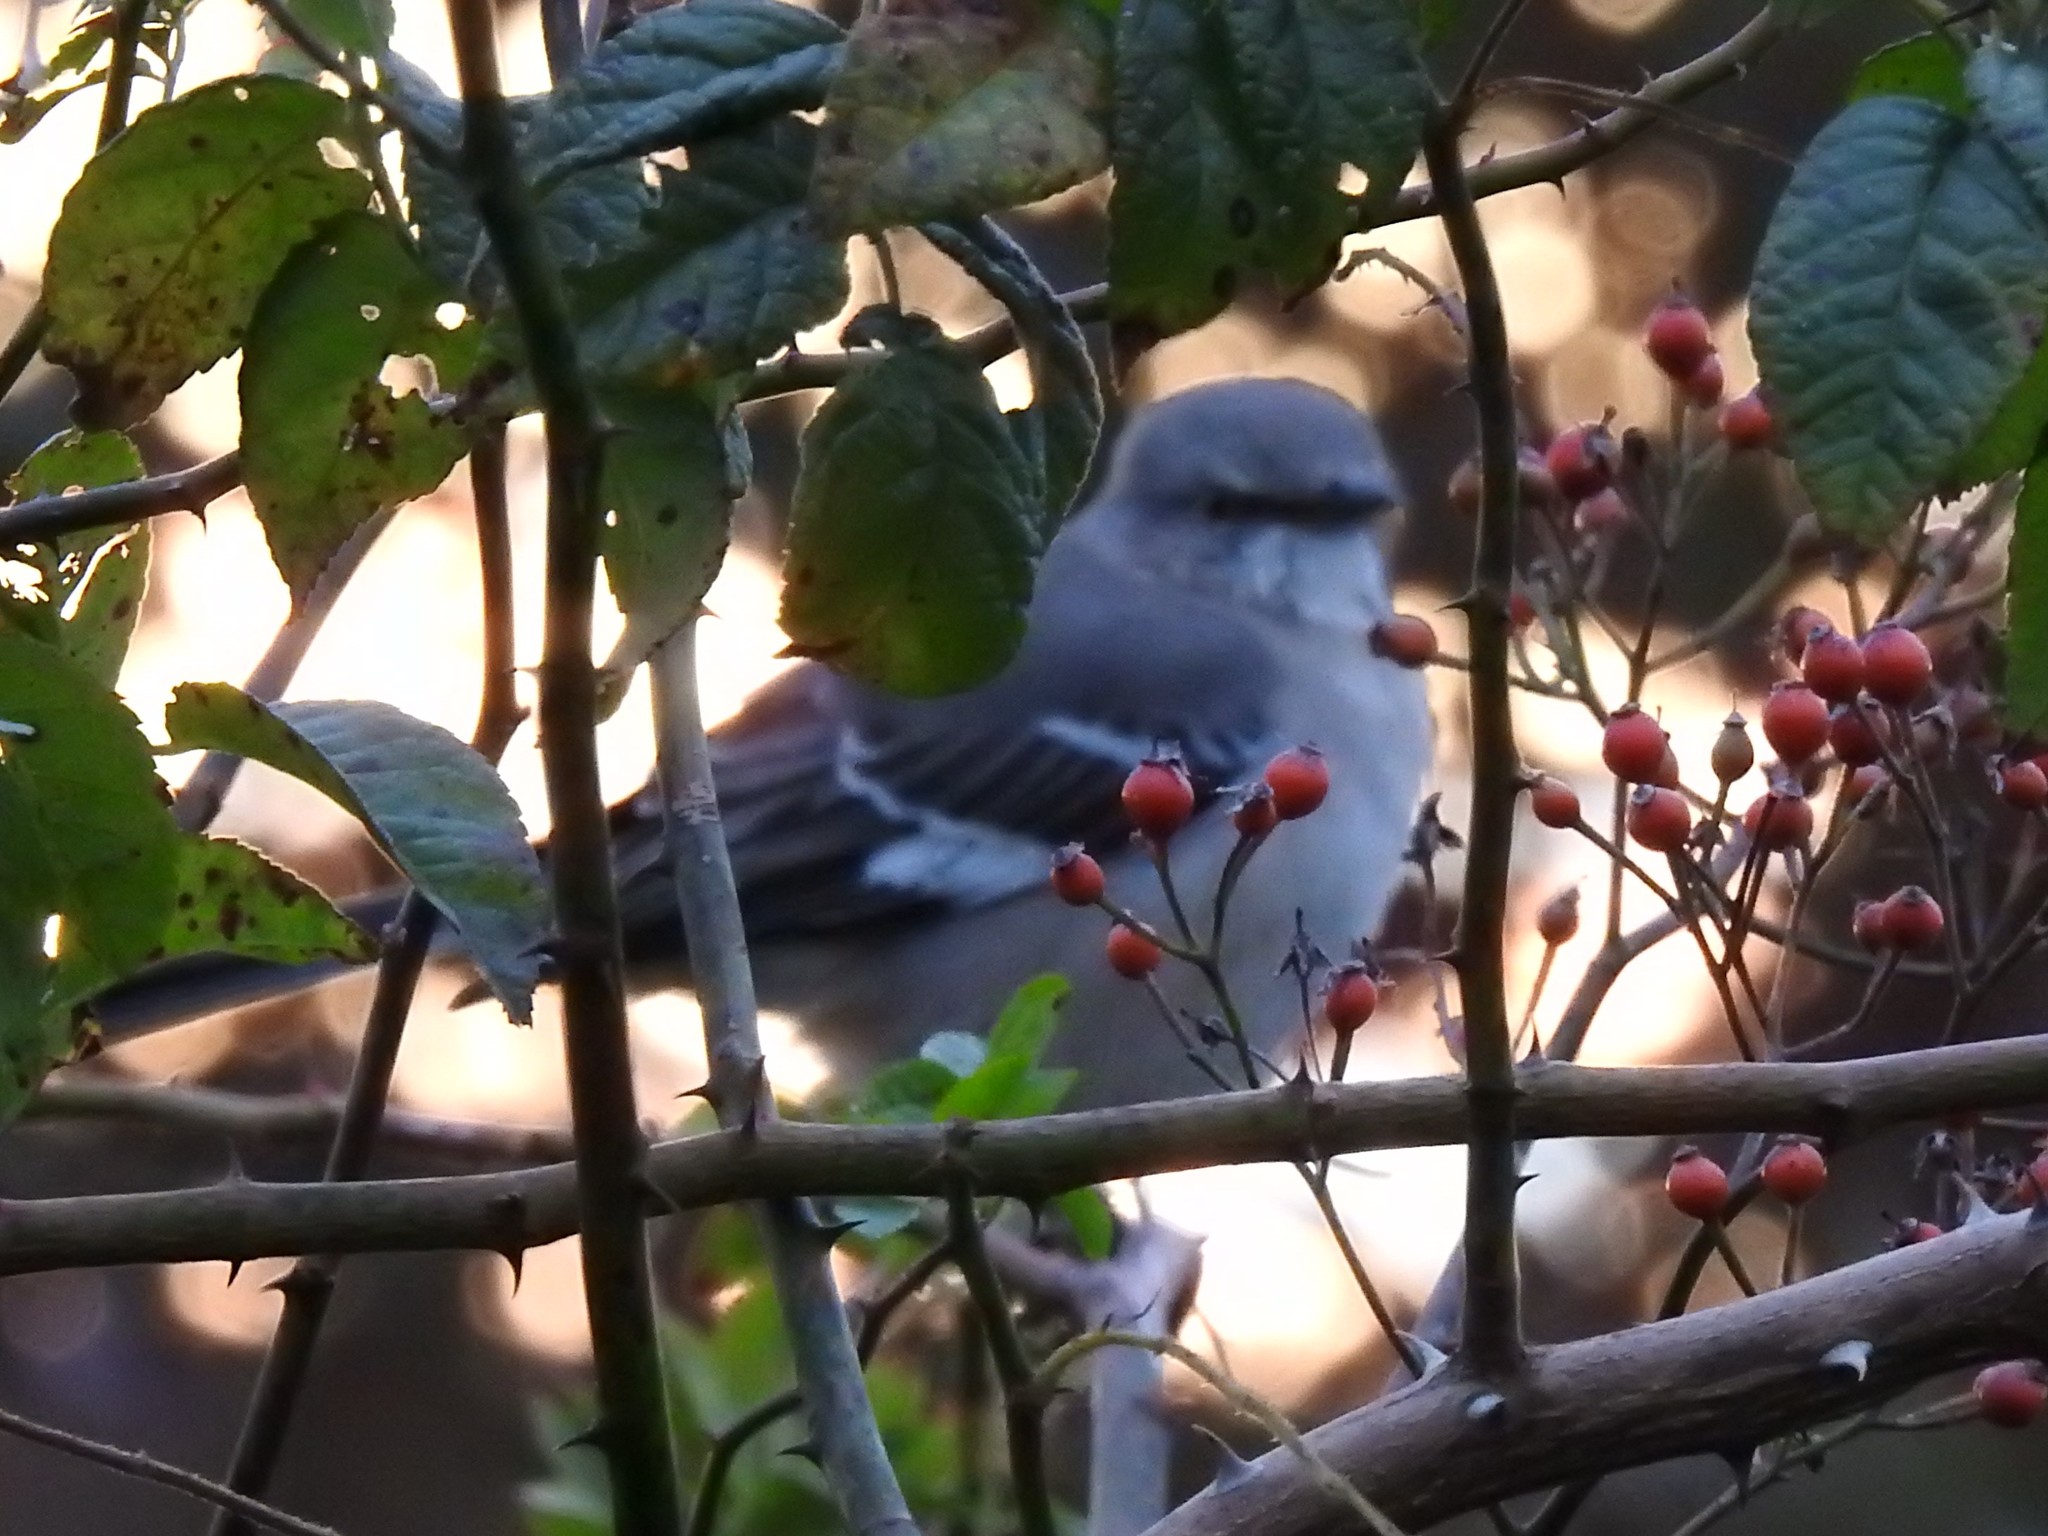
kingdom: Animalia
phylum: Chordata
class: Aves
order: Passeriformes
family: Mimidae
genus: Mimus
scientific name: Mimus polyglottos
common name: Northern mockingbird
